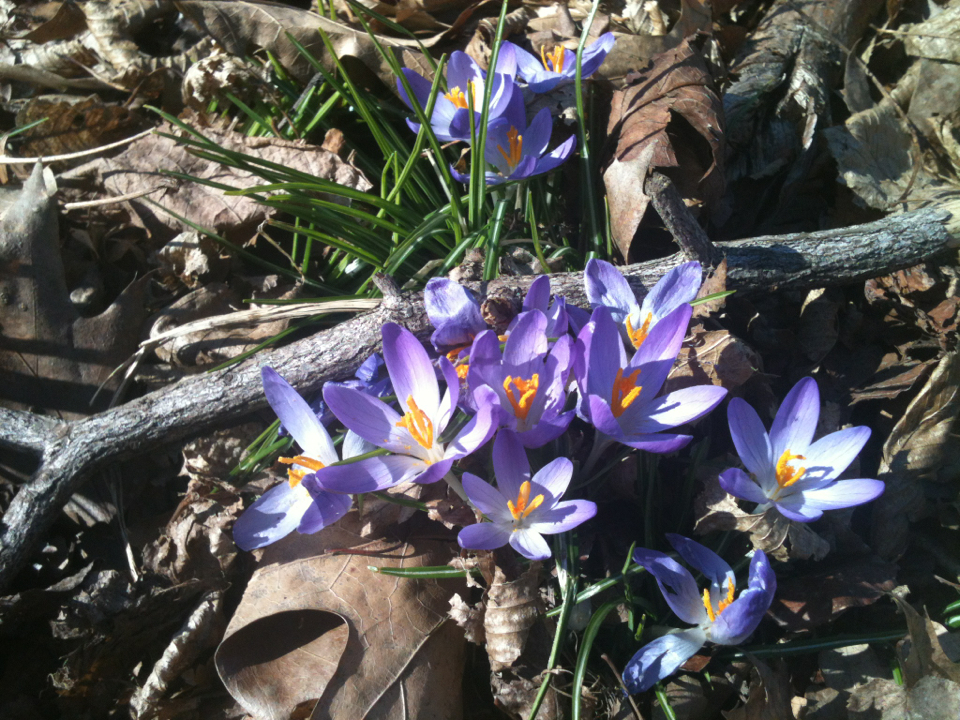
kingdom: Plantae
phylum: Tracheophyta
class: Liliopsida
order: Asparagales
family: Iridaceae
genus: Crocus
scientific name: Crocus tommasinianus
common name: Early crocus
